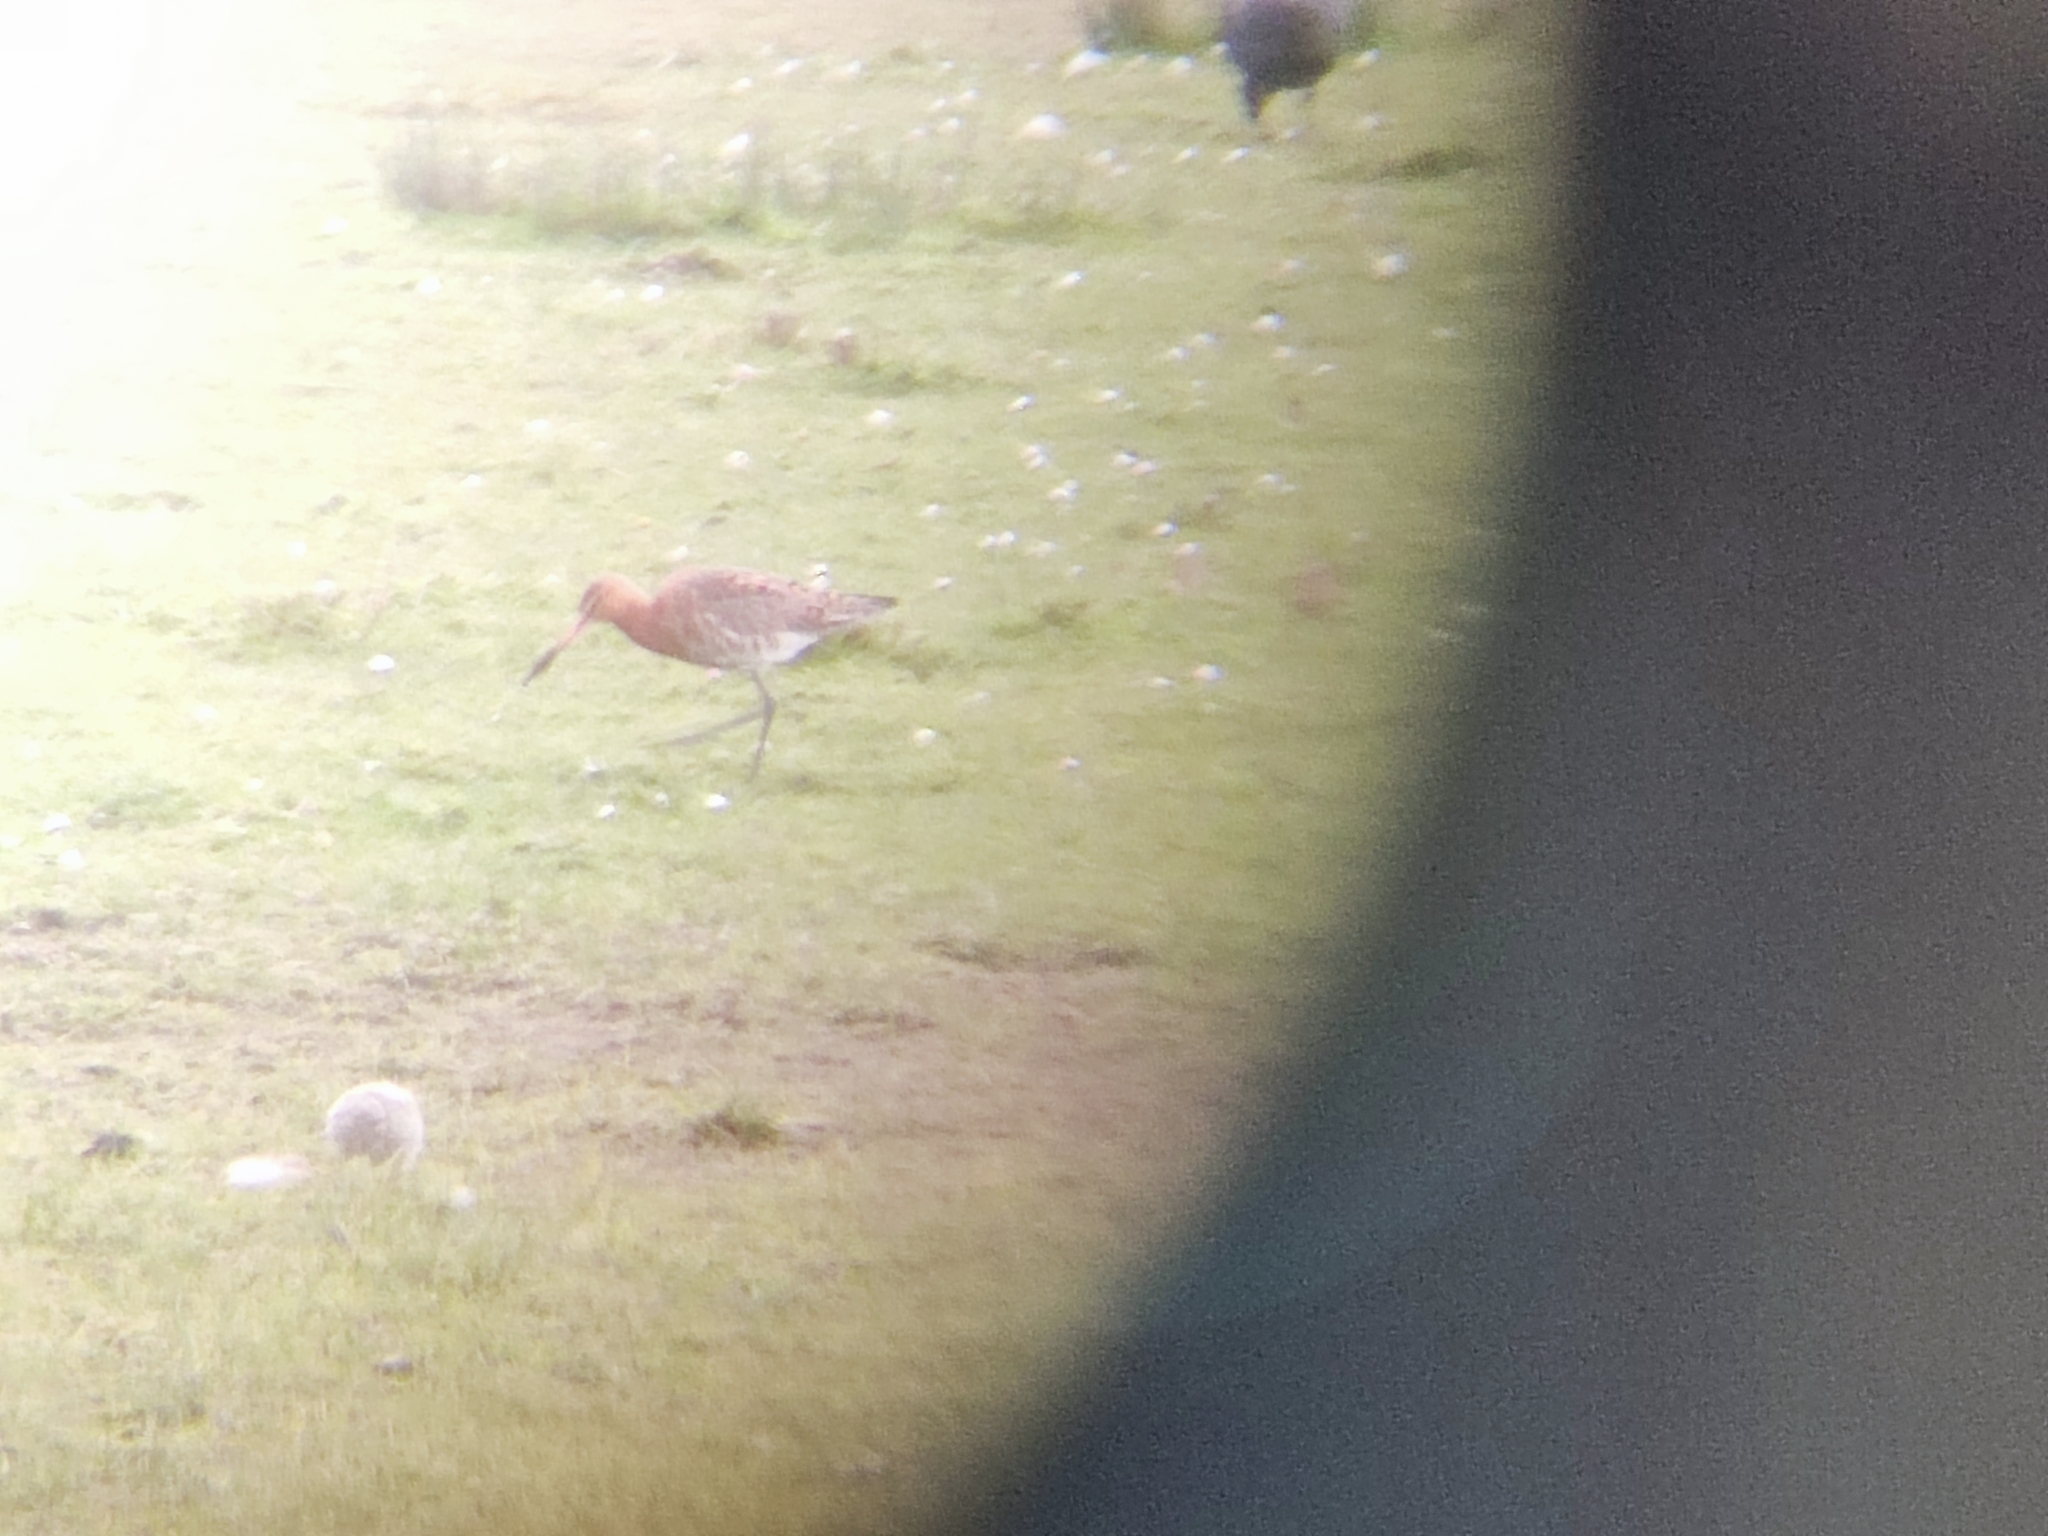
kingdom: Animalia
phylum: Chordata
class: Aves
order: Charadriiformes
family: Scolopacidae
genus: Limosa
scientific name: Limosa limosa
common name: Black-tailed godwit
